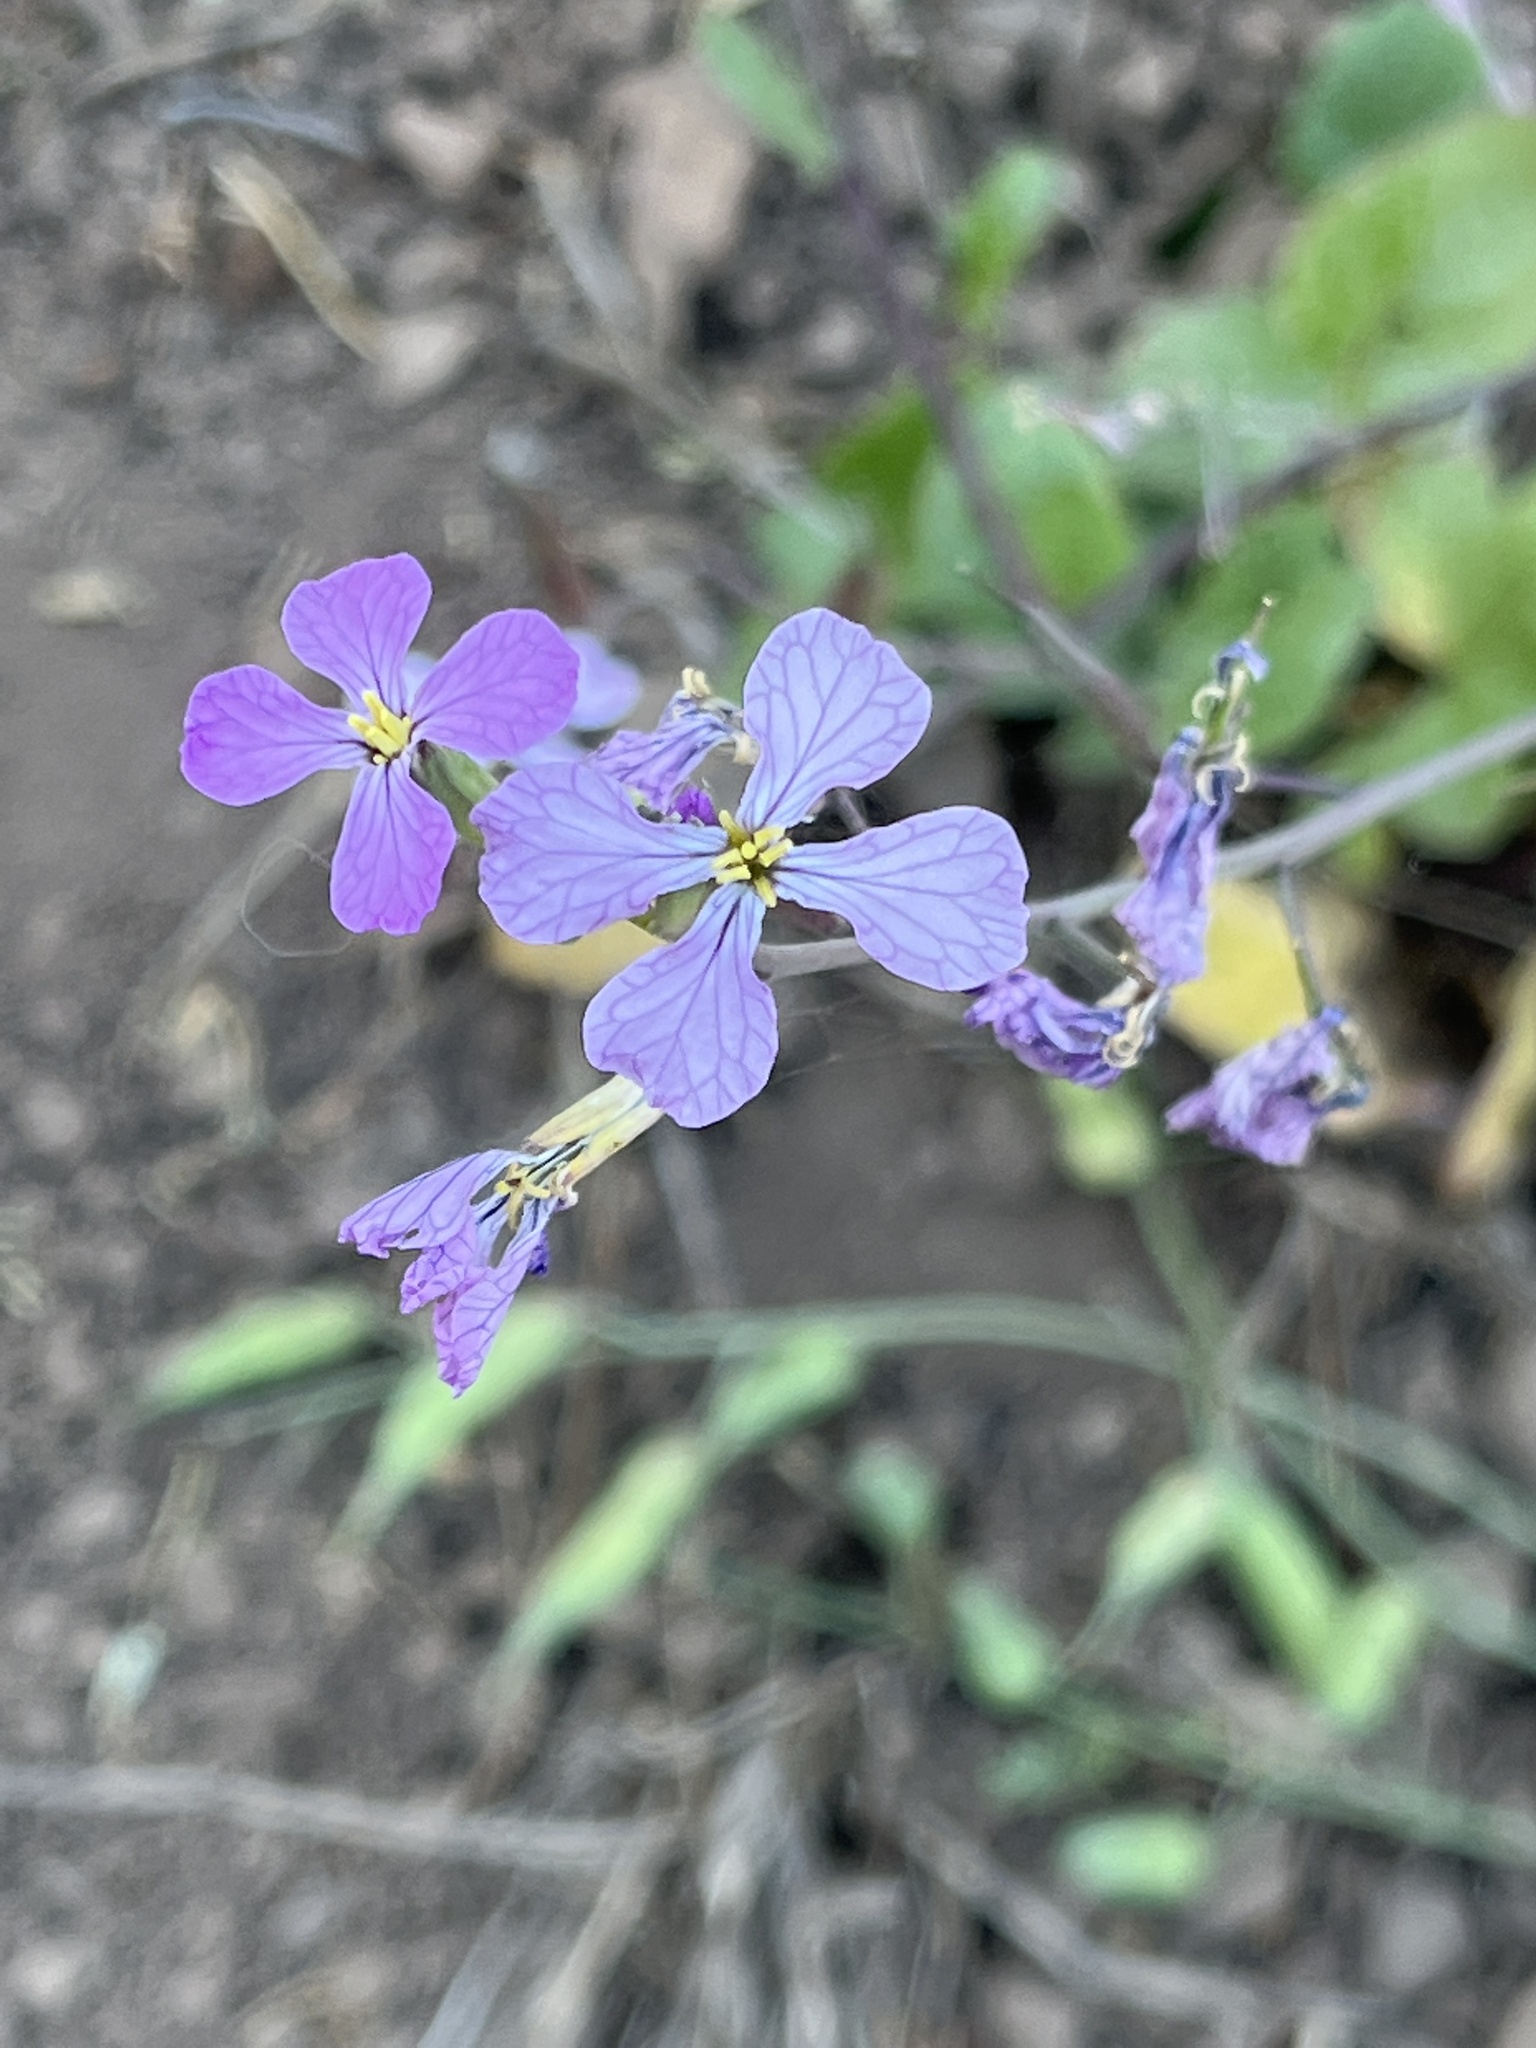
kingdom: Plantae
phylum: Tracheophyta
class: Magnoliopsida
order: Brassicales
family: Brassicaceae
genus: Raphanus
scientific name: Raphanus sativus
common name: Cultivated radish
